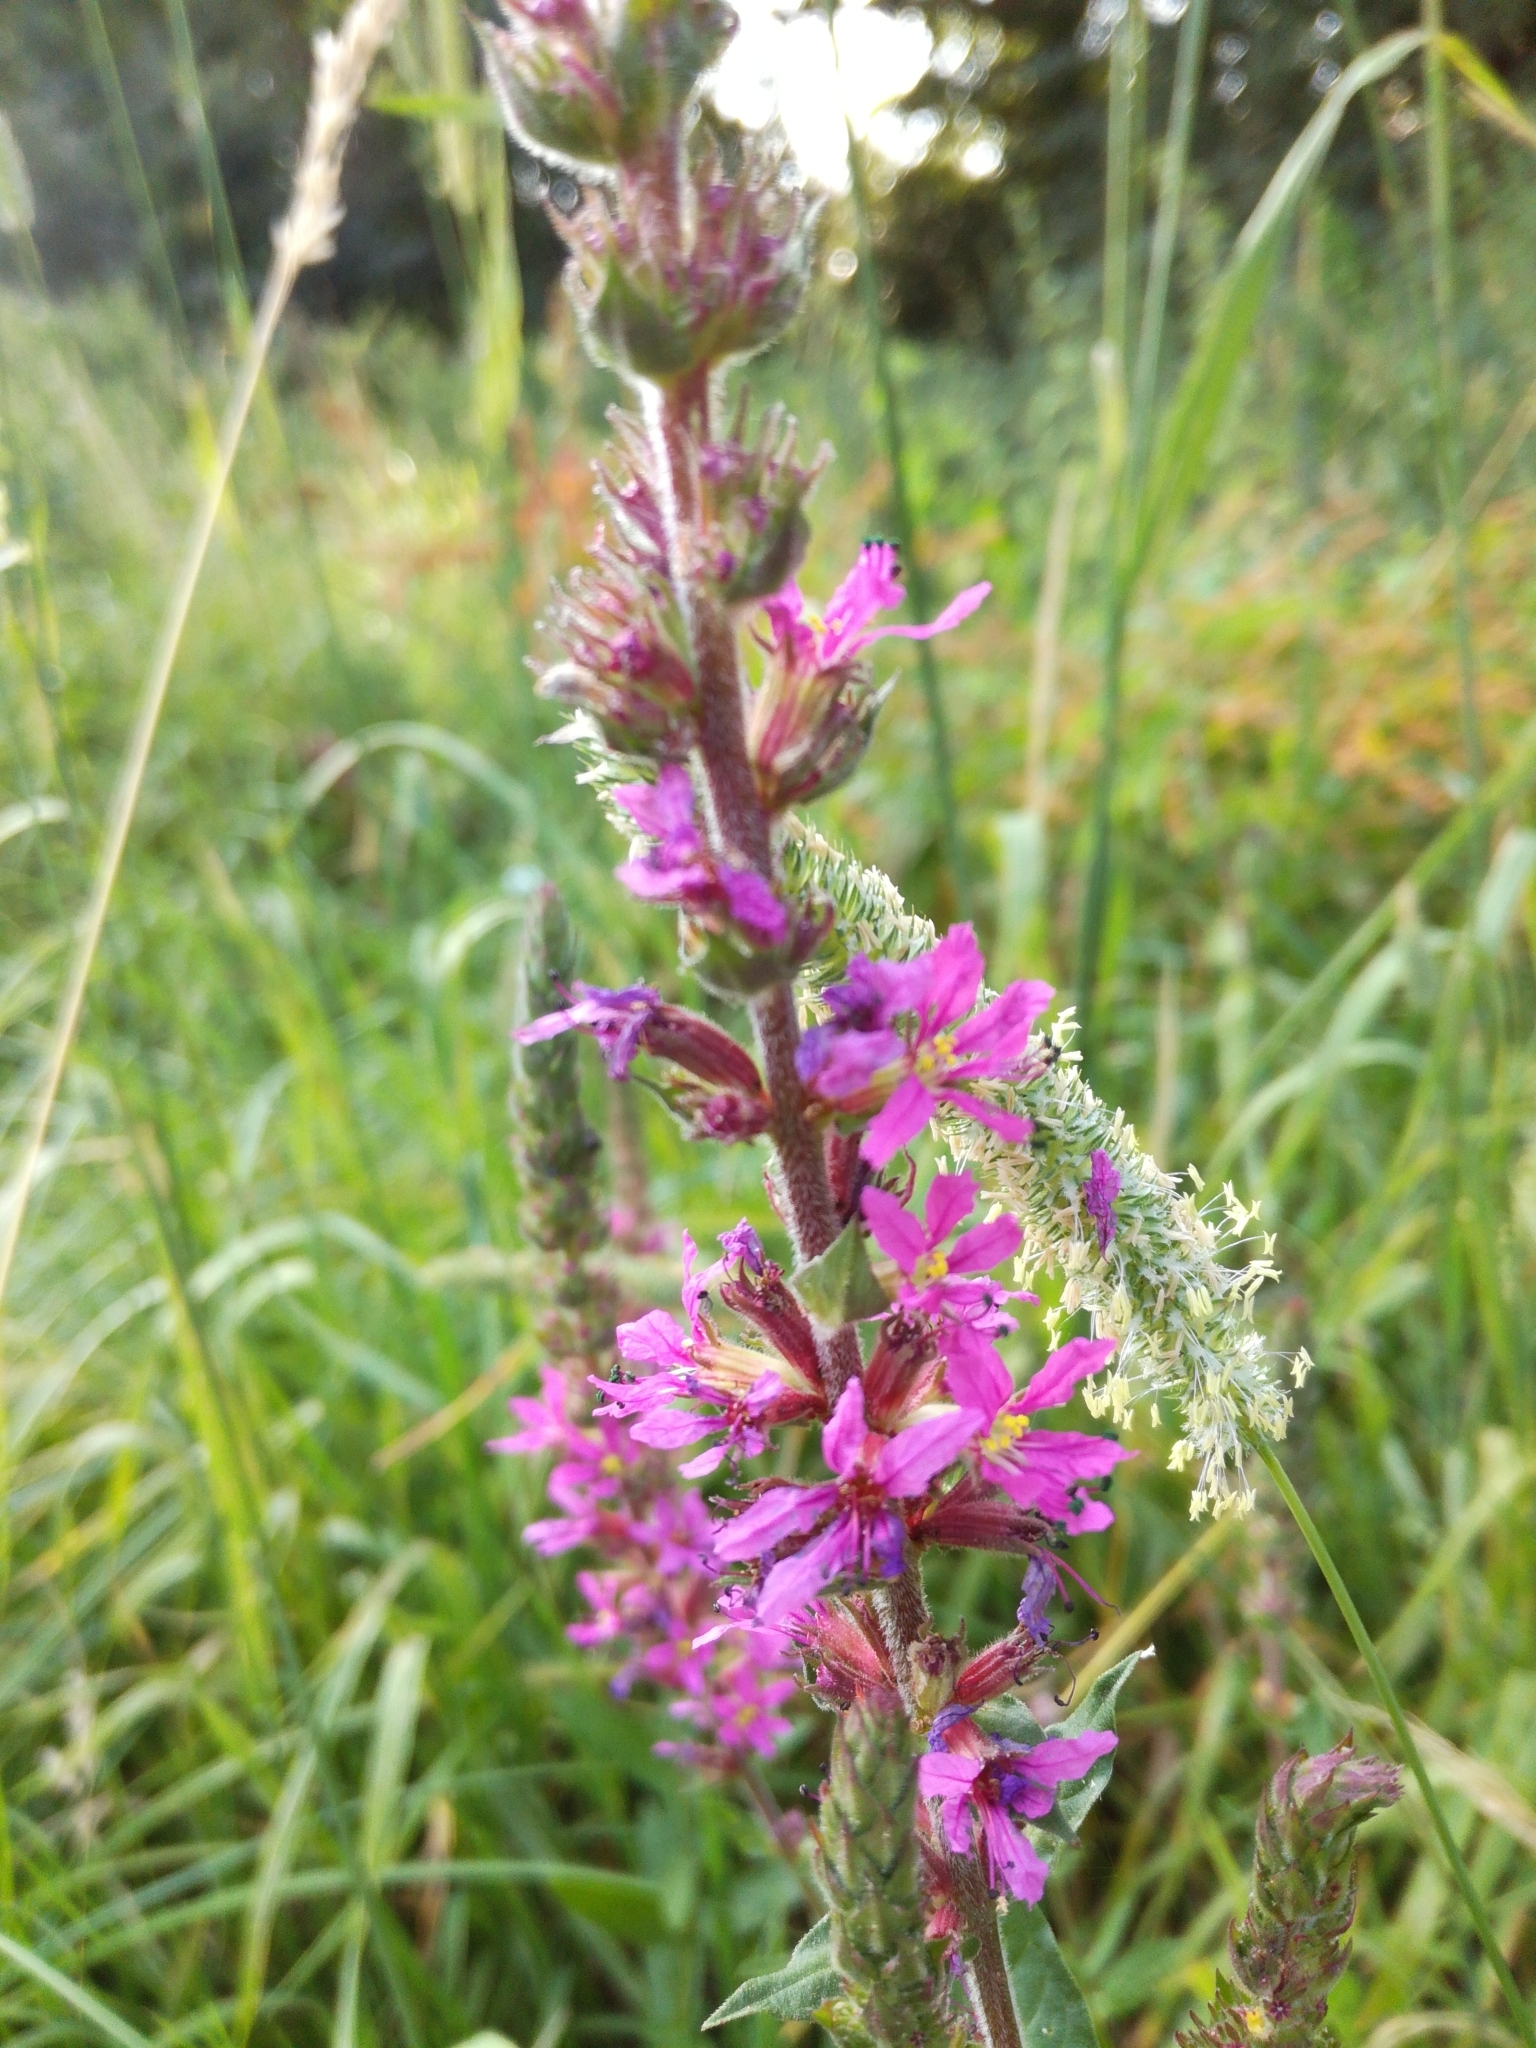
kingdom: Plantae
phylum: Tracheophyta
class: Magnoliopsida
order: Myrtales
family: Lythraceae
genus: Lythrum
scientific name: Lythrum salicaria
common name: Purple loosestrife
